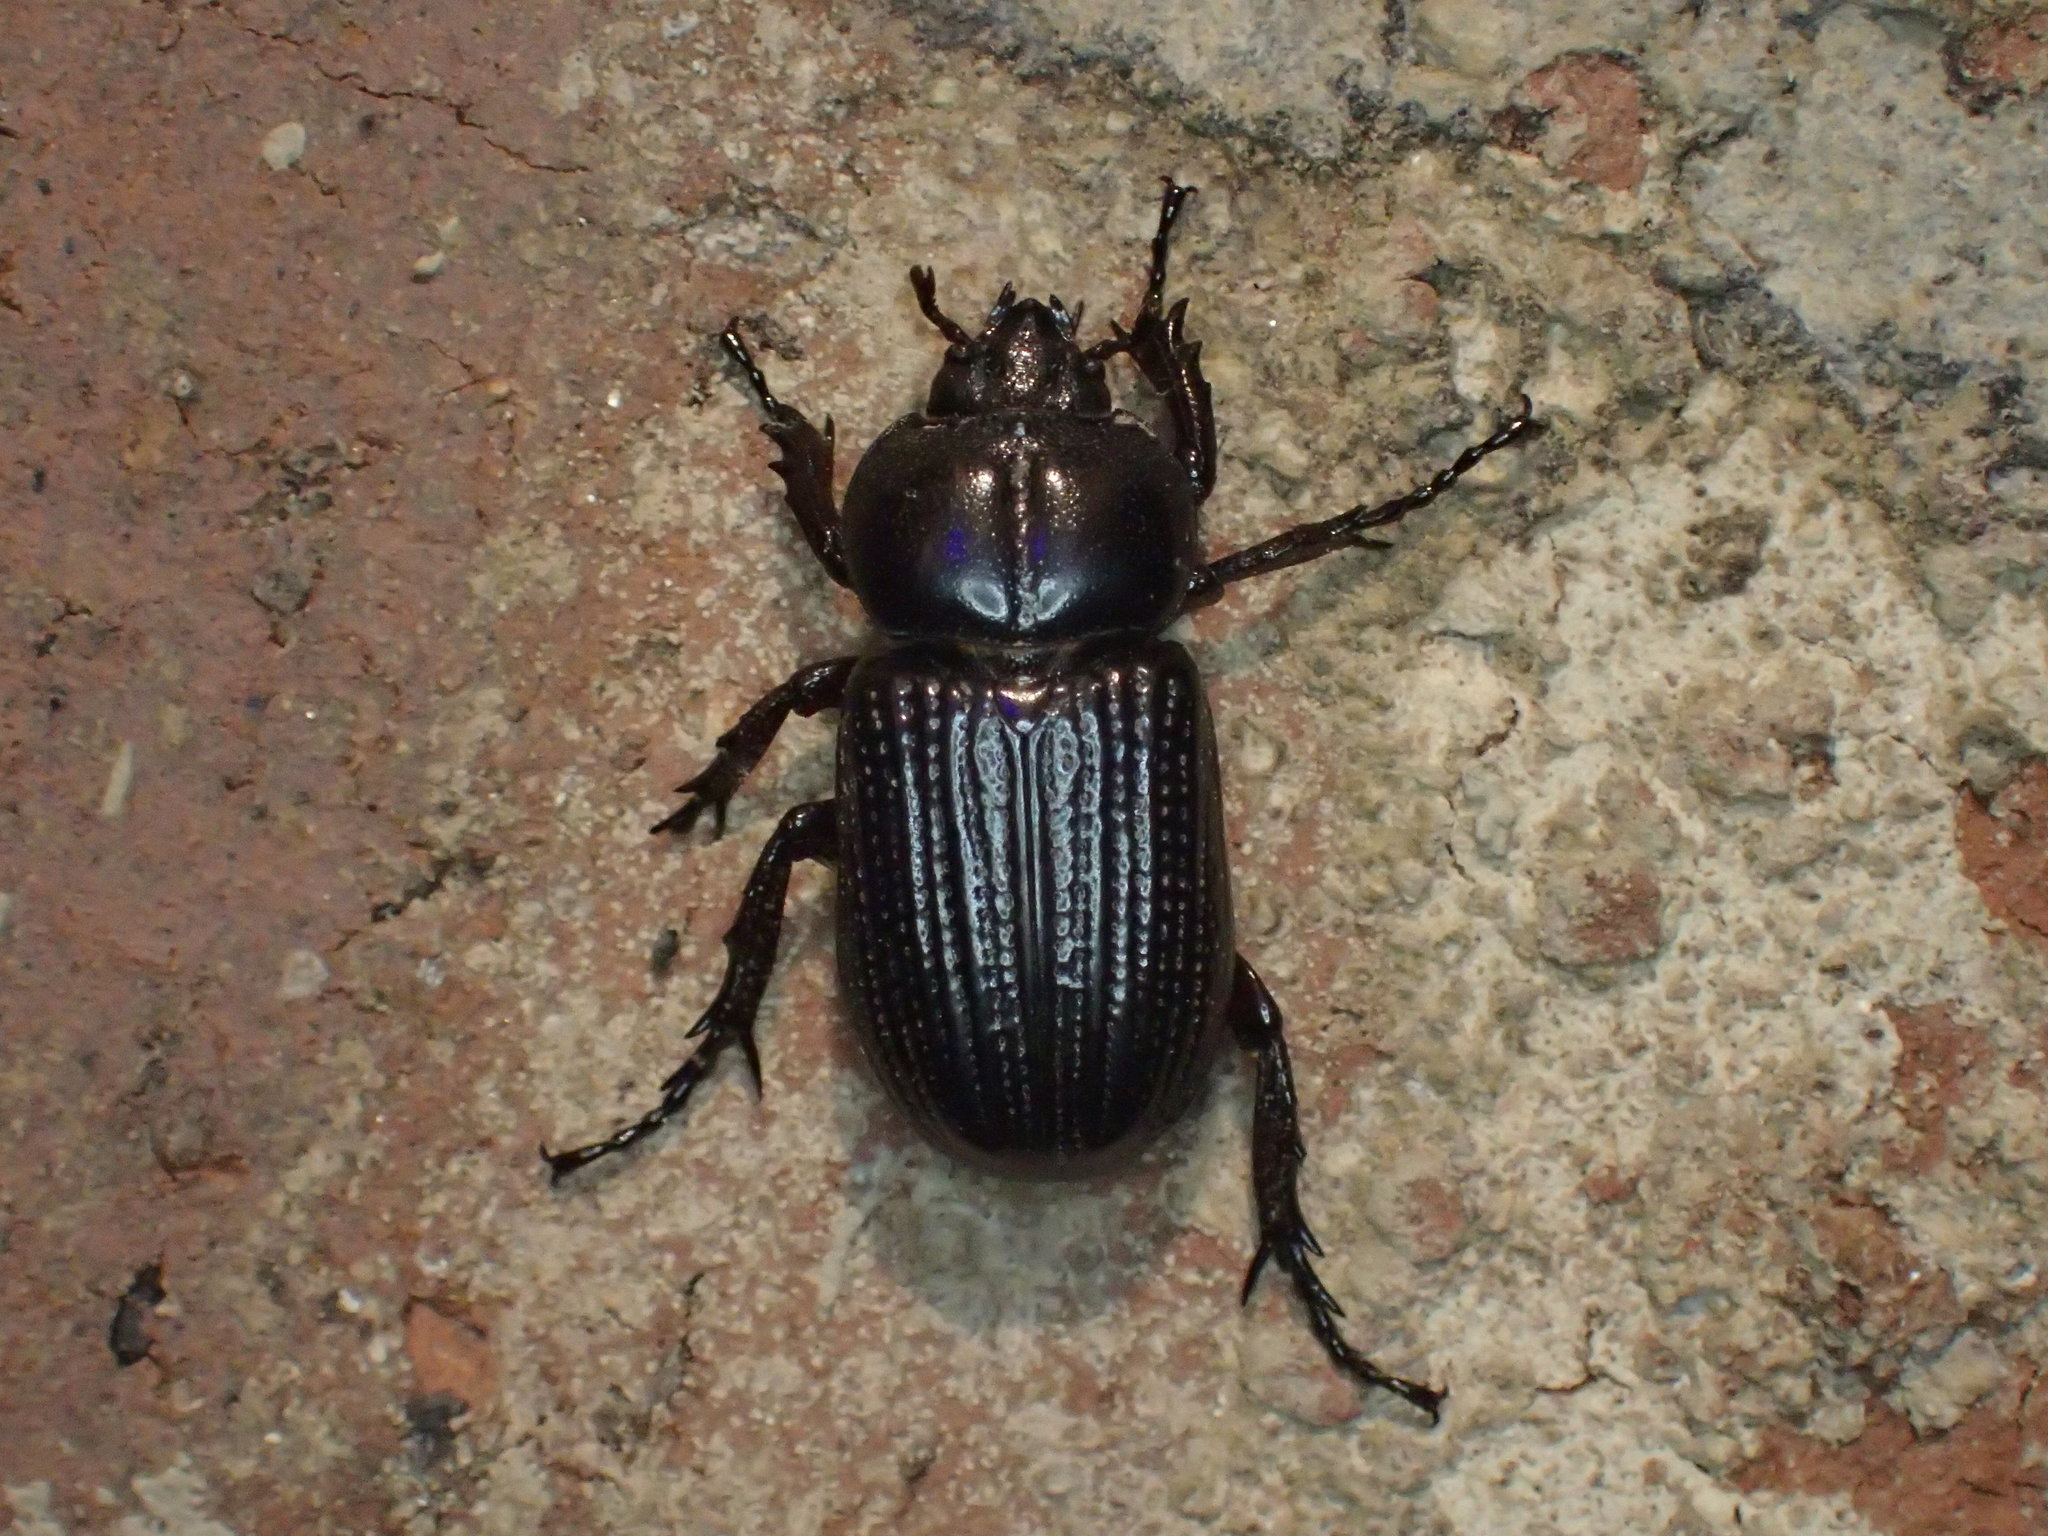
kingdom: Animalia
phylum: Arthropoda
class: Insecta
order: Coleoptera
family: Scarabaeidae
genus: Phileurus
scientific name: Phileurus valgus
